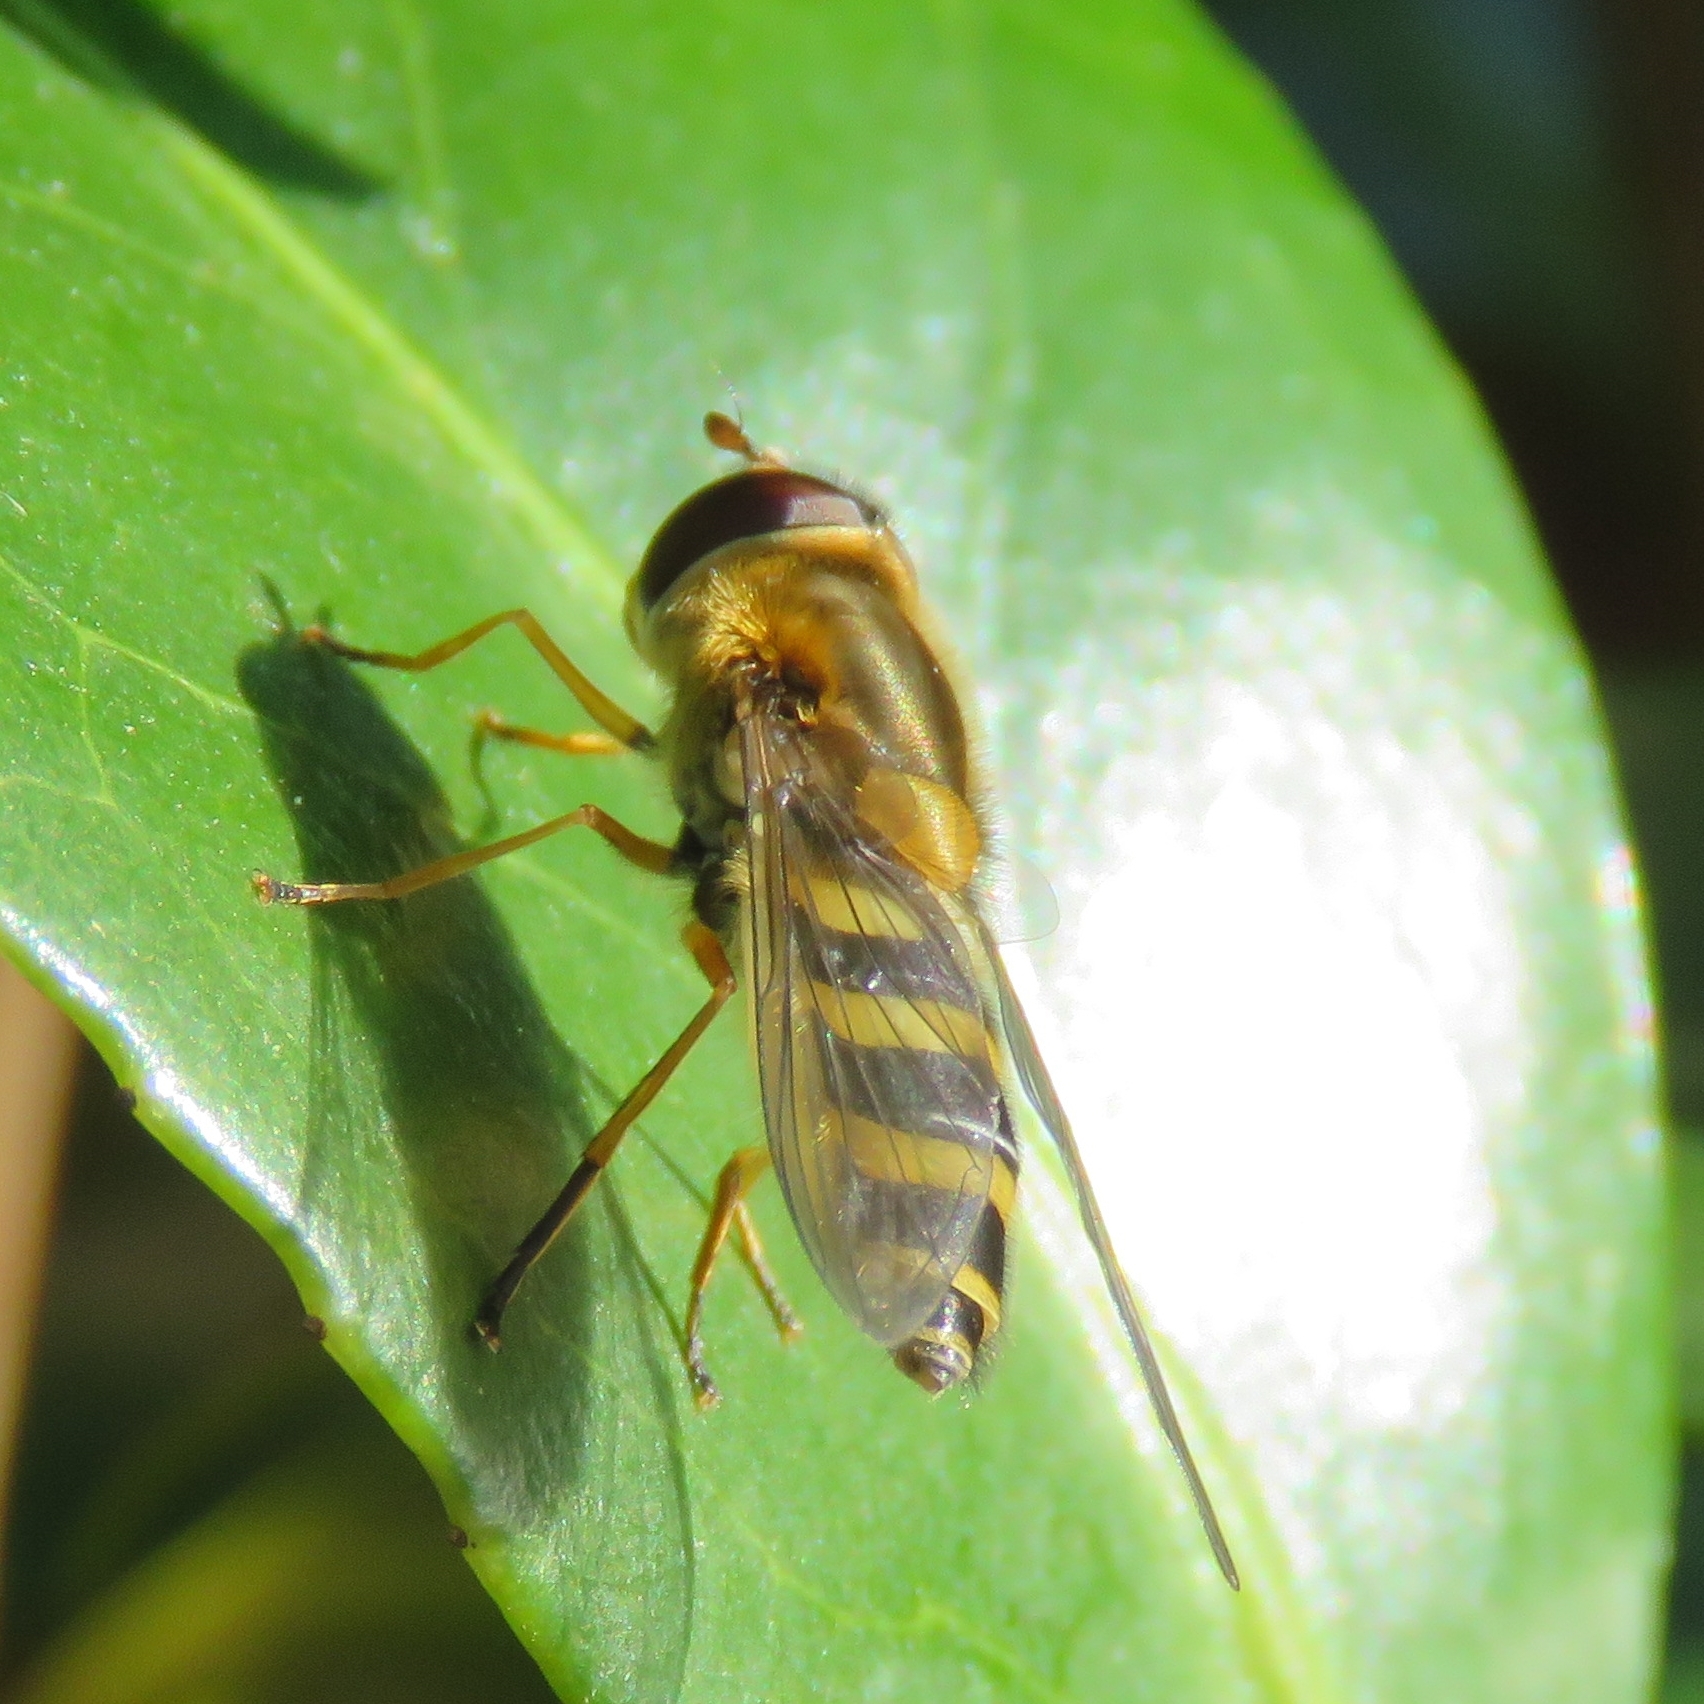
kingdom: Animalia
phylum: Arthropoda
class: Insecta
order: Diptera
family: Syrphidae
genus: Syrphus
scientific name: Syrphus ribesii
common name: Common flower fly
